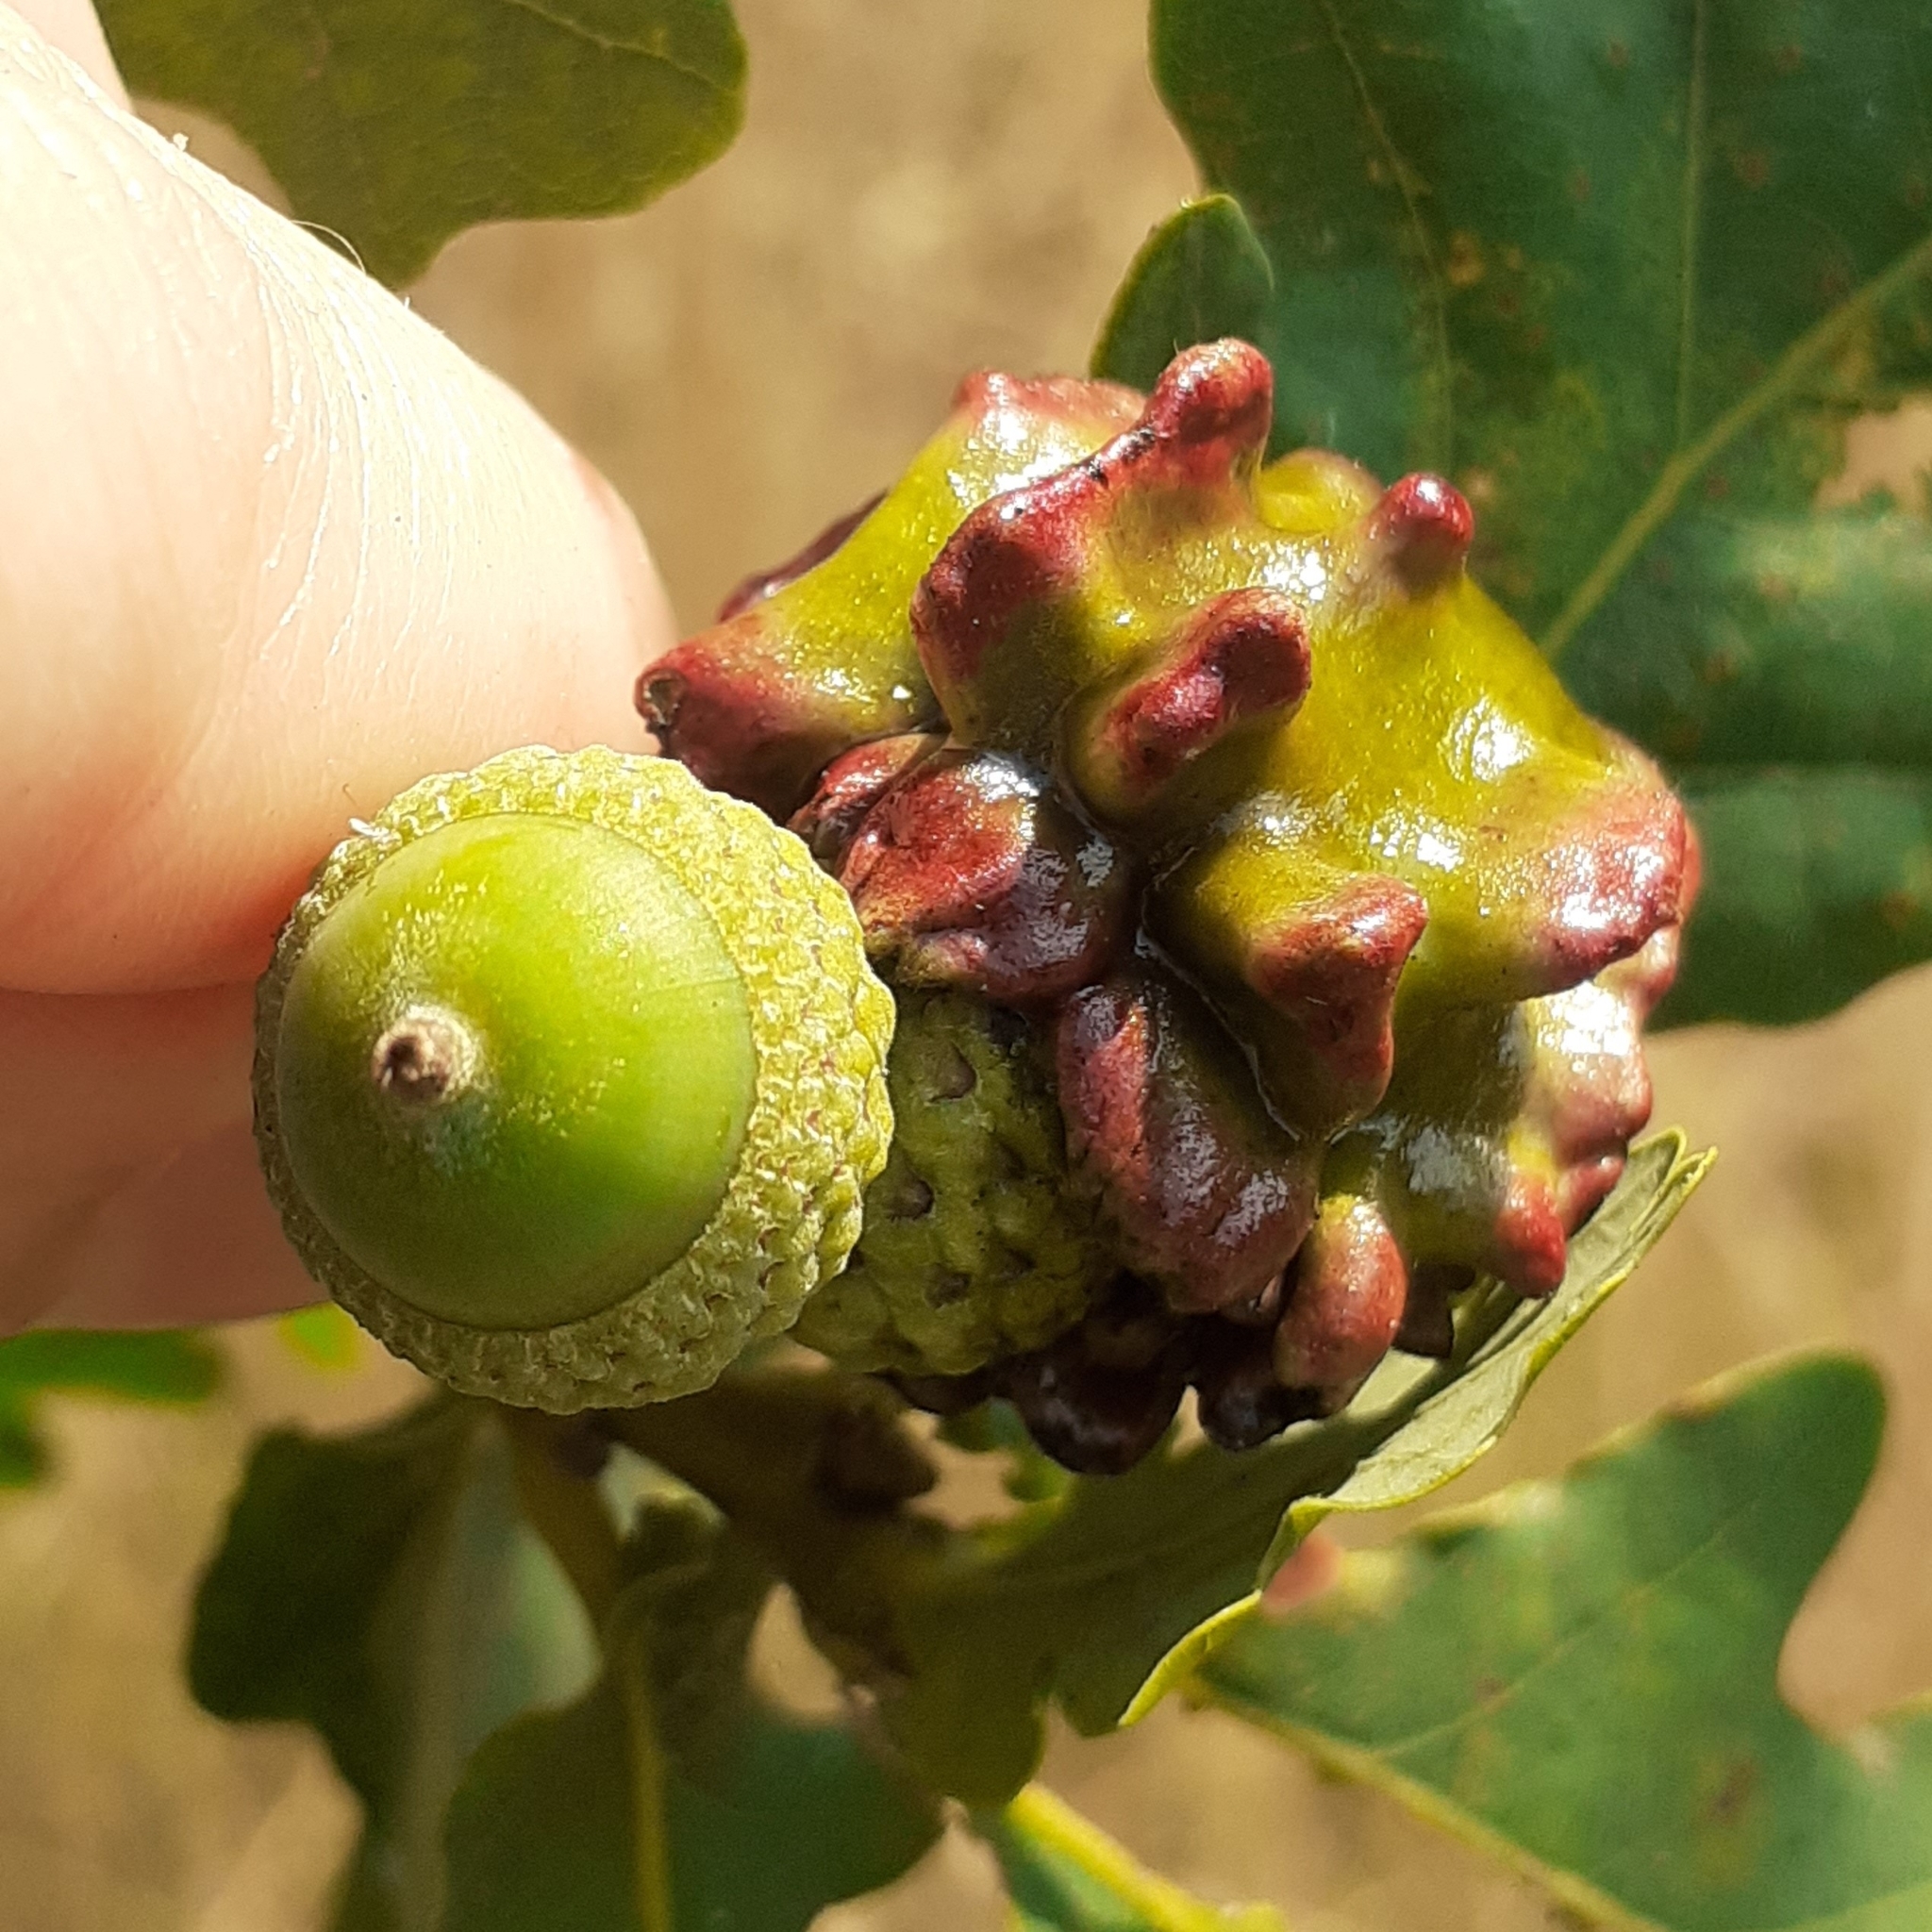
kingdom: Animalia
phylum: Arthropoda
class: Insecta
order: Hymenoptera
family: Cynipidae
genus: Andricus
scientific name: Andricus quercuscalicis
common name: Knopper gall
